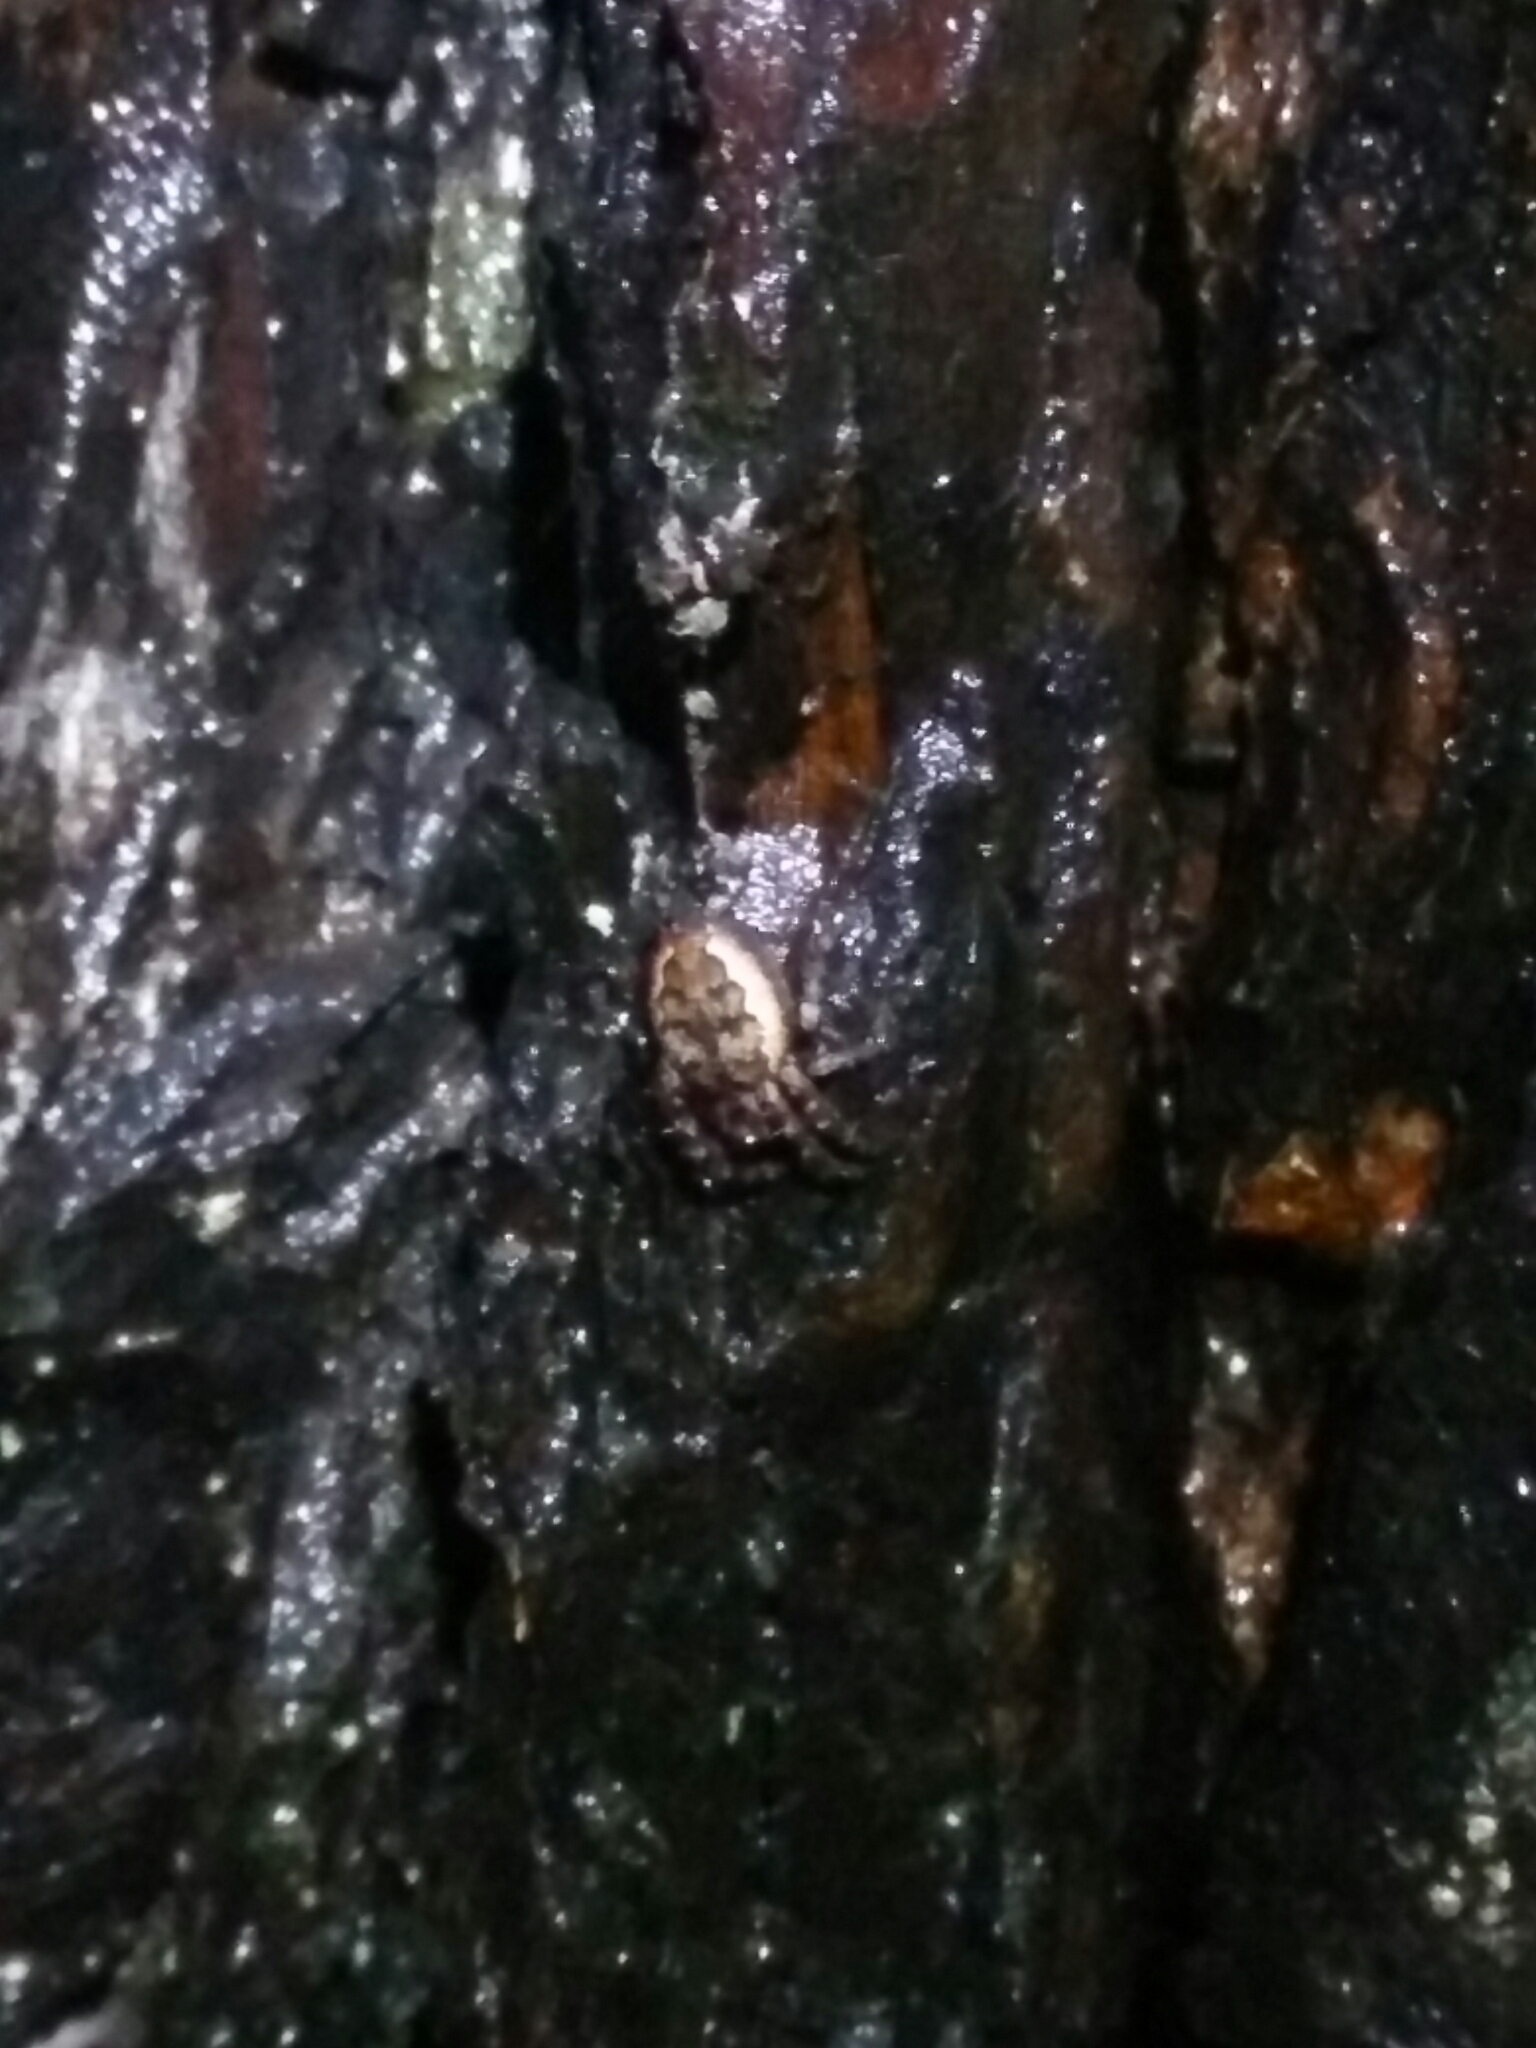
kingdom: Animalia
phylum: Arthropoda
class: Arachnida
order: Araneae
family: Araneidae
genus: Nuctenea
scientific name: Nuctenea umbratica
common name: Toad spider
